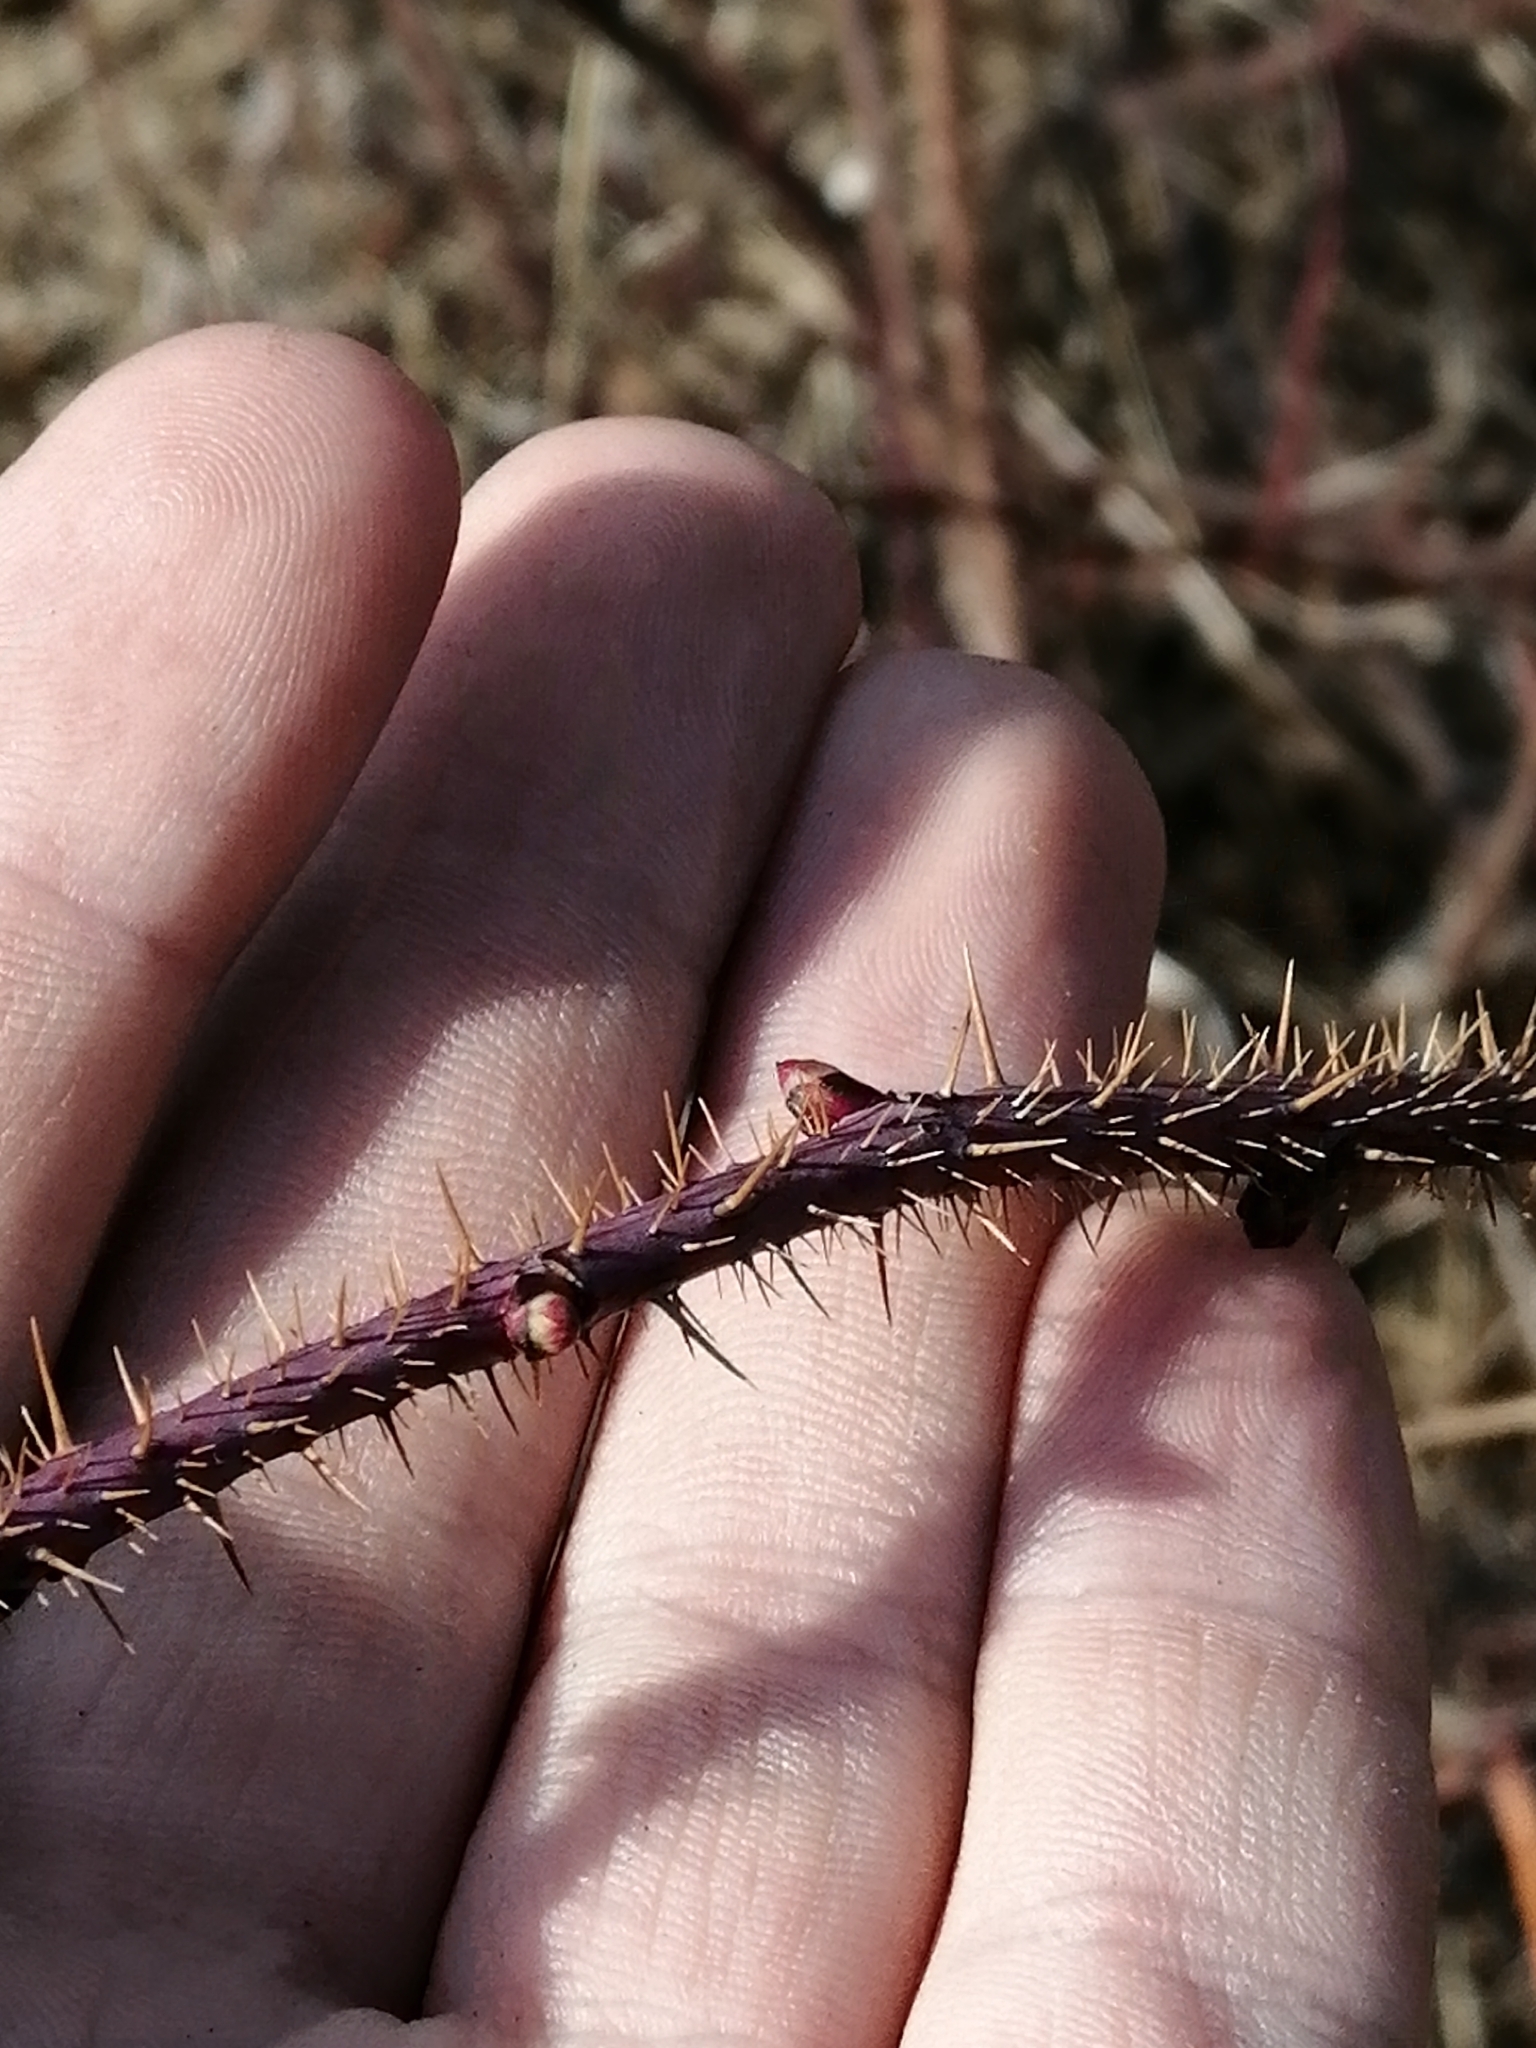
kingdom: Plantae
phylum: Tracheophyta
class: Magnoliopsida
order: Rosales
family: Rosaceae
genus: Rosa
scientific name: Rosa acicularis
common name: Prickly rose
